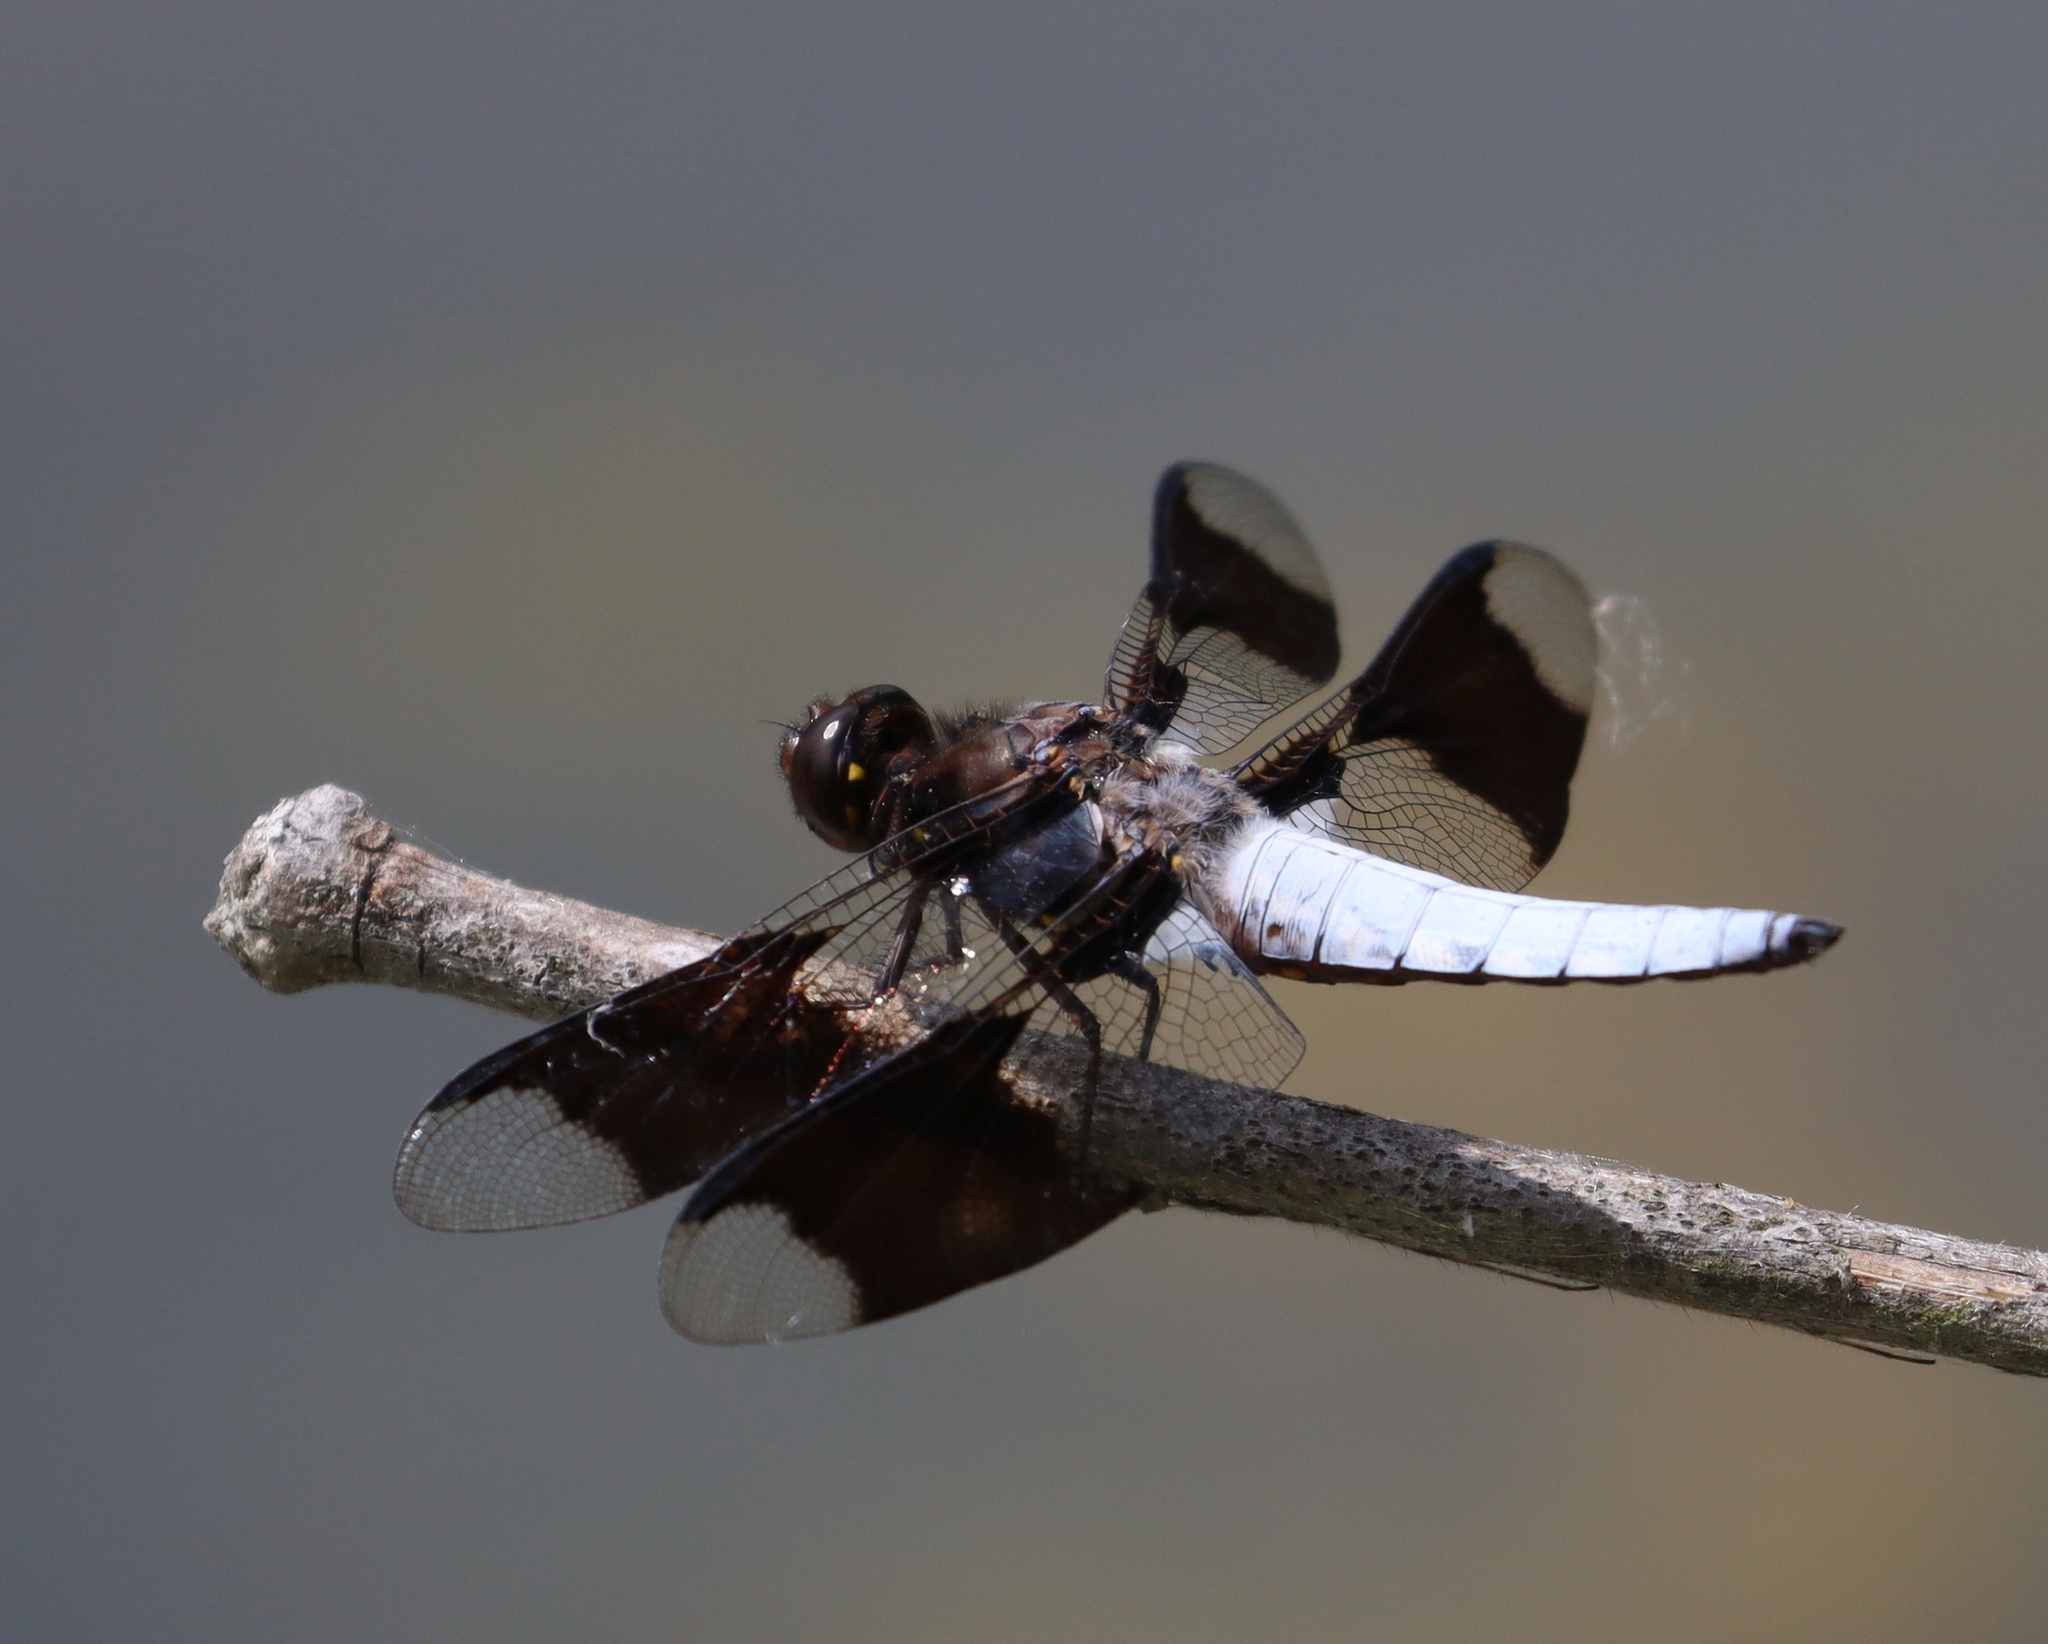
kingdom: Animalia
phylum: Arthropoda
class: Insecta
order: Odonata
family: Libellulidae
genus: Plathemis
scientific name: Plathemis lydia
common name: Common whitetail
